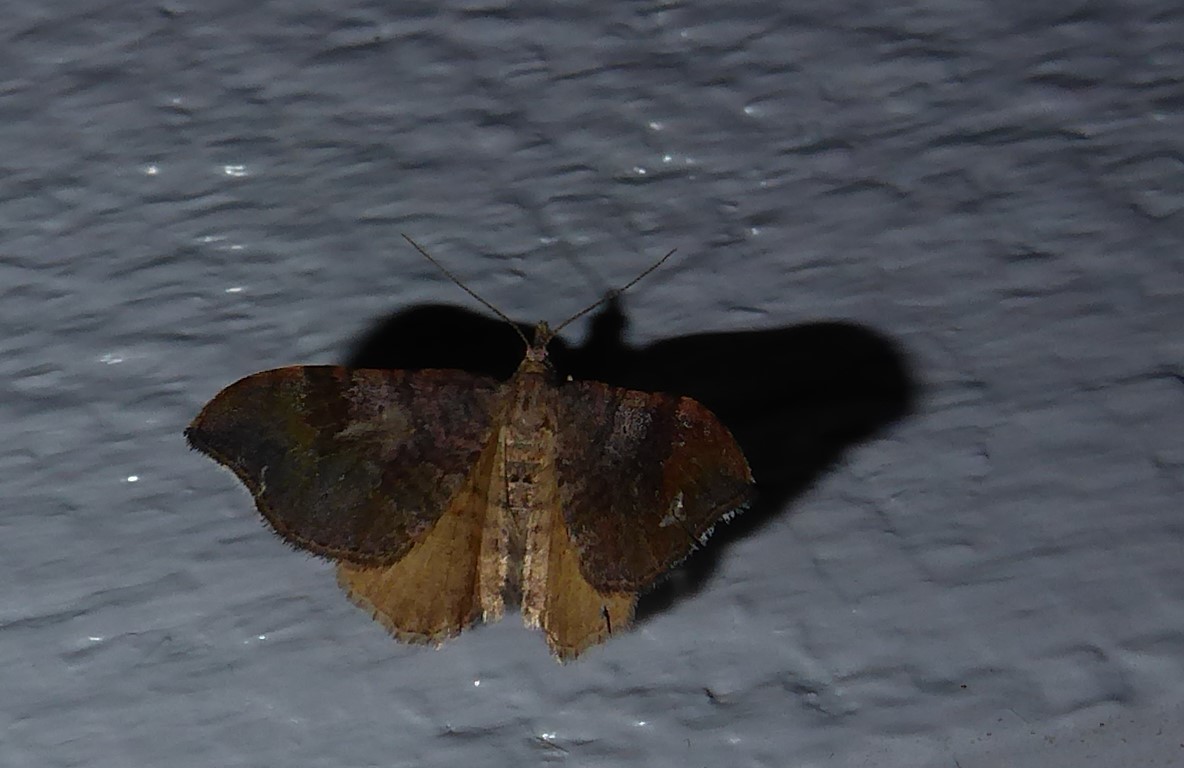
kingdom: Animalia
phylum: Arthropoda
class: Insecta
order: Lepidoptera
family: Geometridae
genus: Homodotis
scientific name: Homodotis megaspilata
